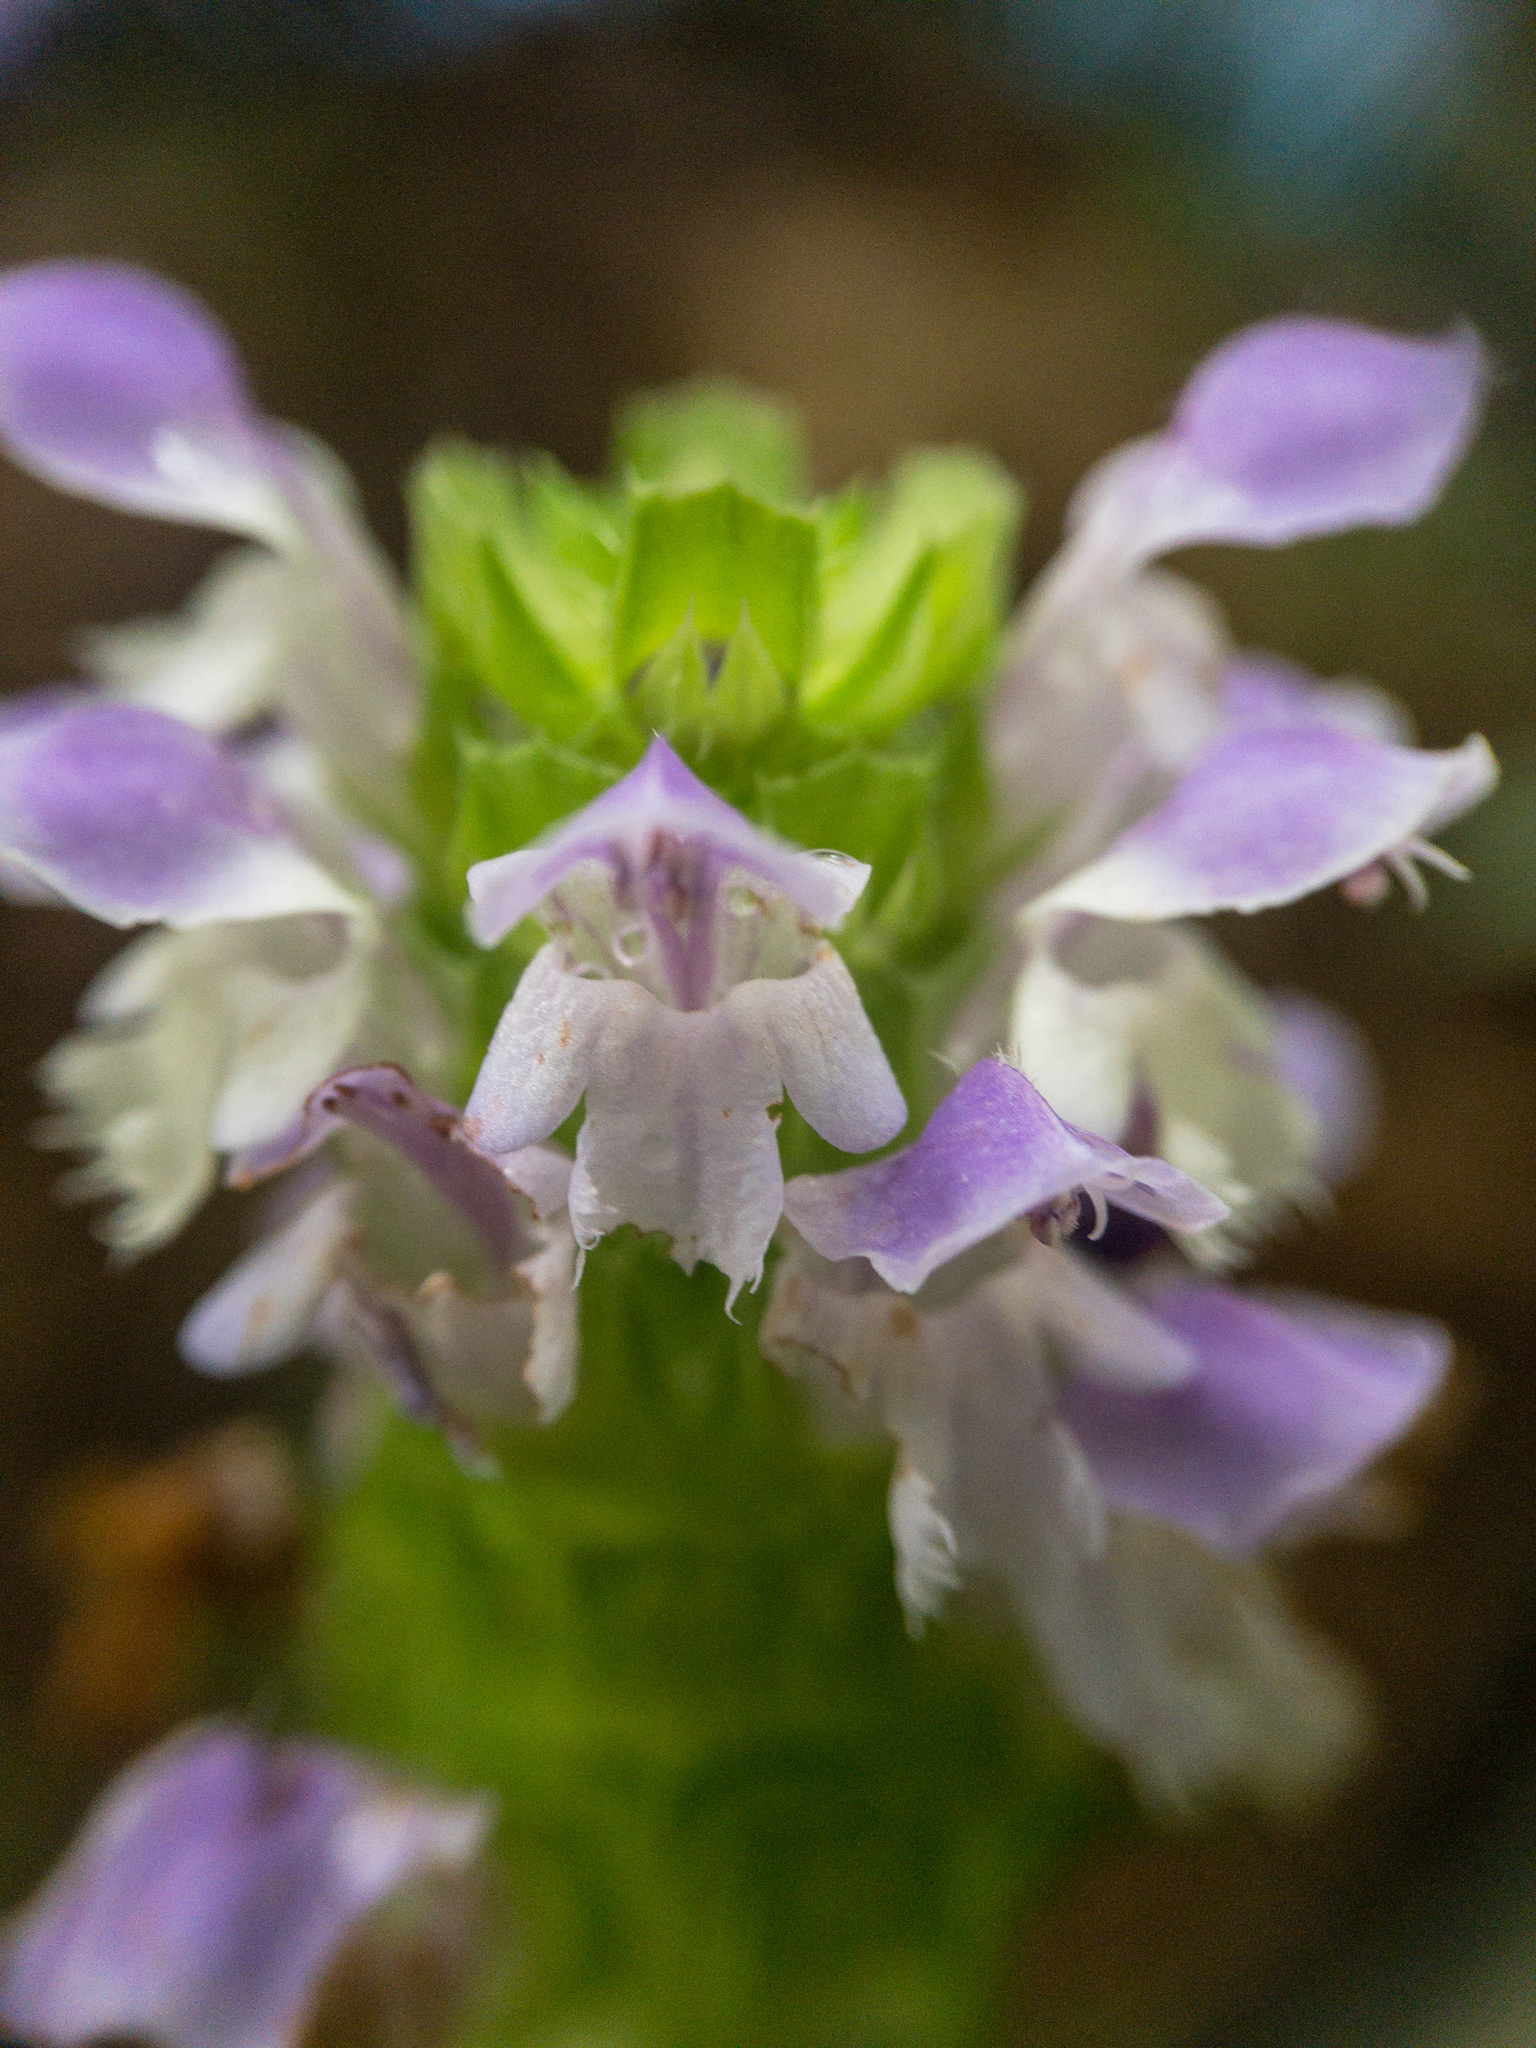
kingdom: Plantae
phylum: Tracheophyta
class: Magnoliopsida
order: Lamiales
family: Lamiaceae
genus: Prunella
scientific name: Prunella vulgaris
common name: Heal-all
